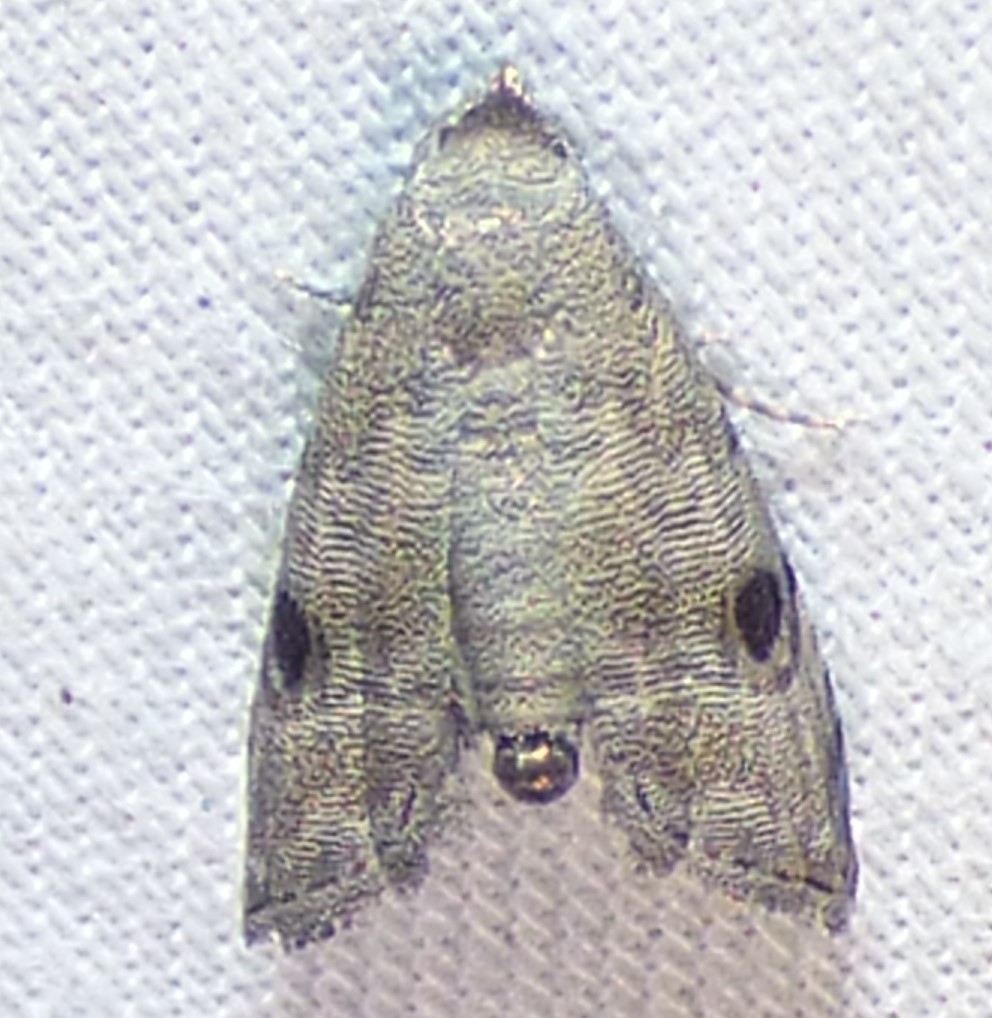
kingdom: Animalia
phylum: Arthropoda
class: Insecta
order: Lepidoptera
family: Noctuidae
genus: Abablemma
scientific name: Abablemma brimleyana
